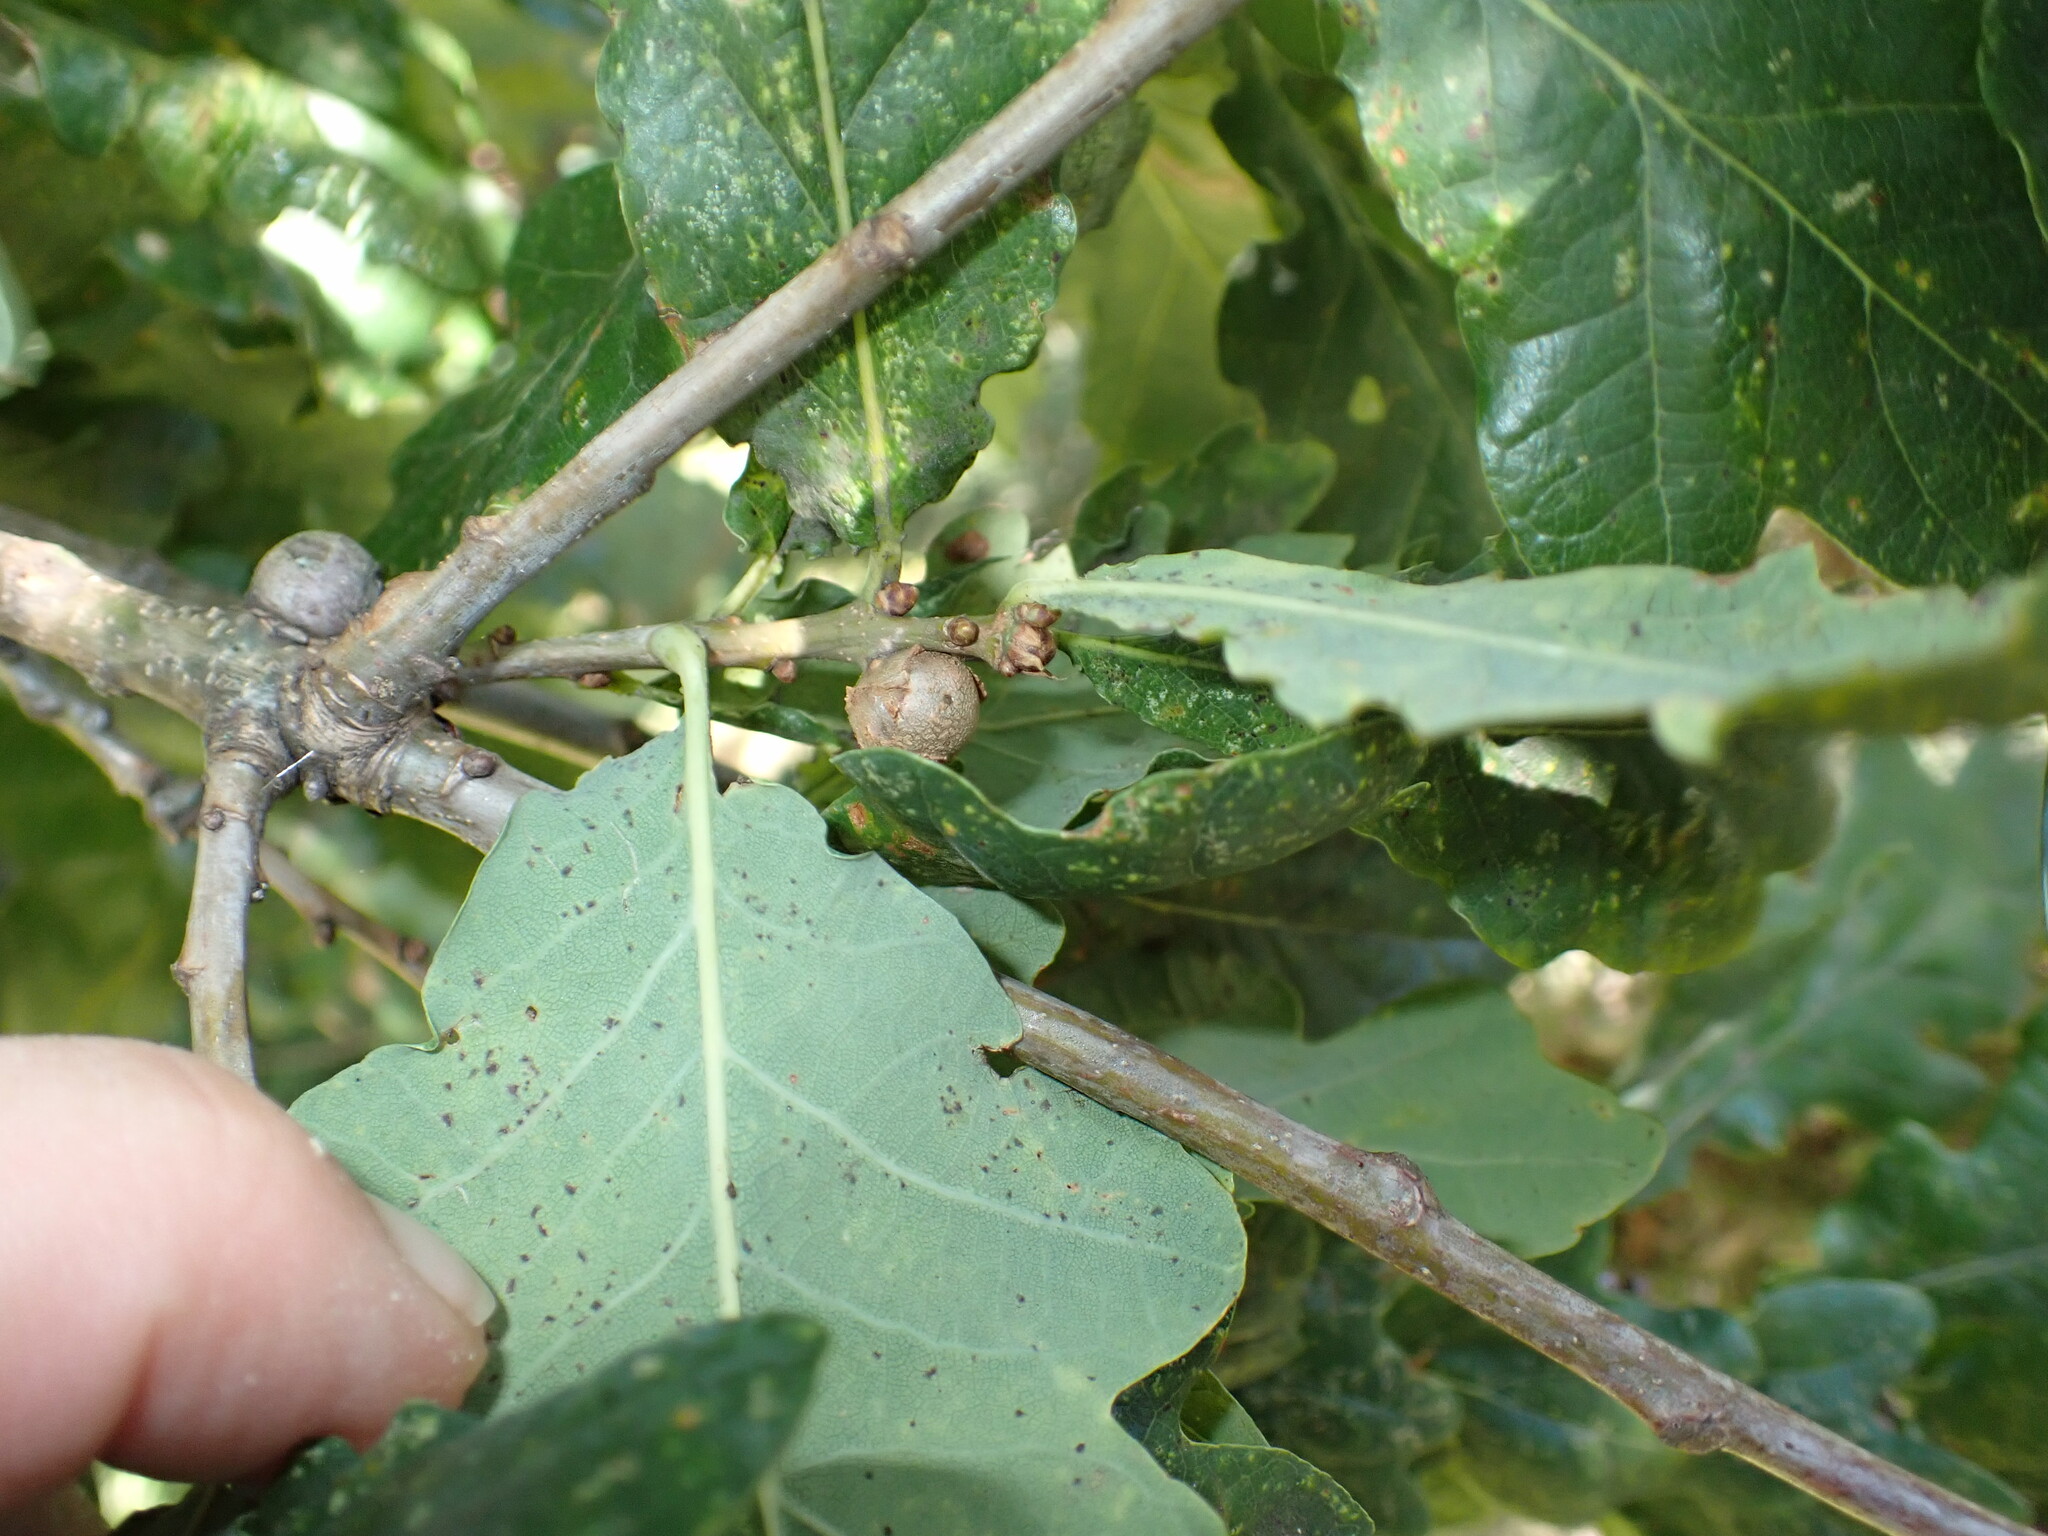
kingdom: Animalia
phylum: Arthropoda
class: Insecta
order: Hymenoptera
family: Cynipidae
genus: Andricus
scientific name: Andricus lignicolus
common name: Cola-nut gall
